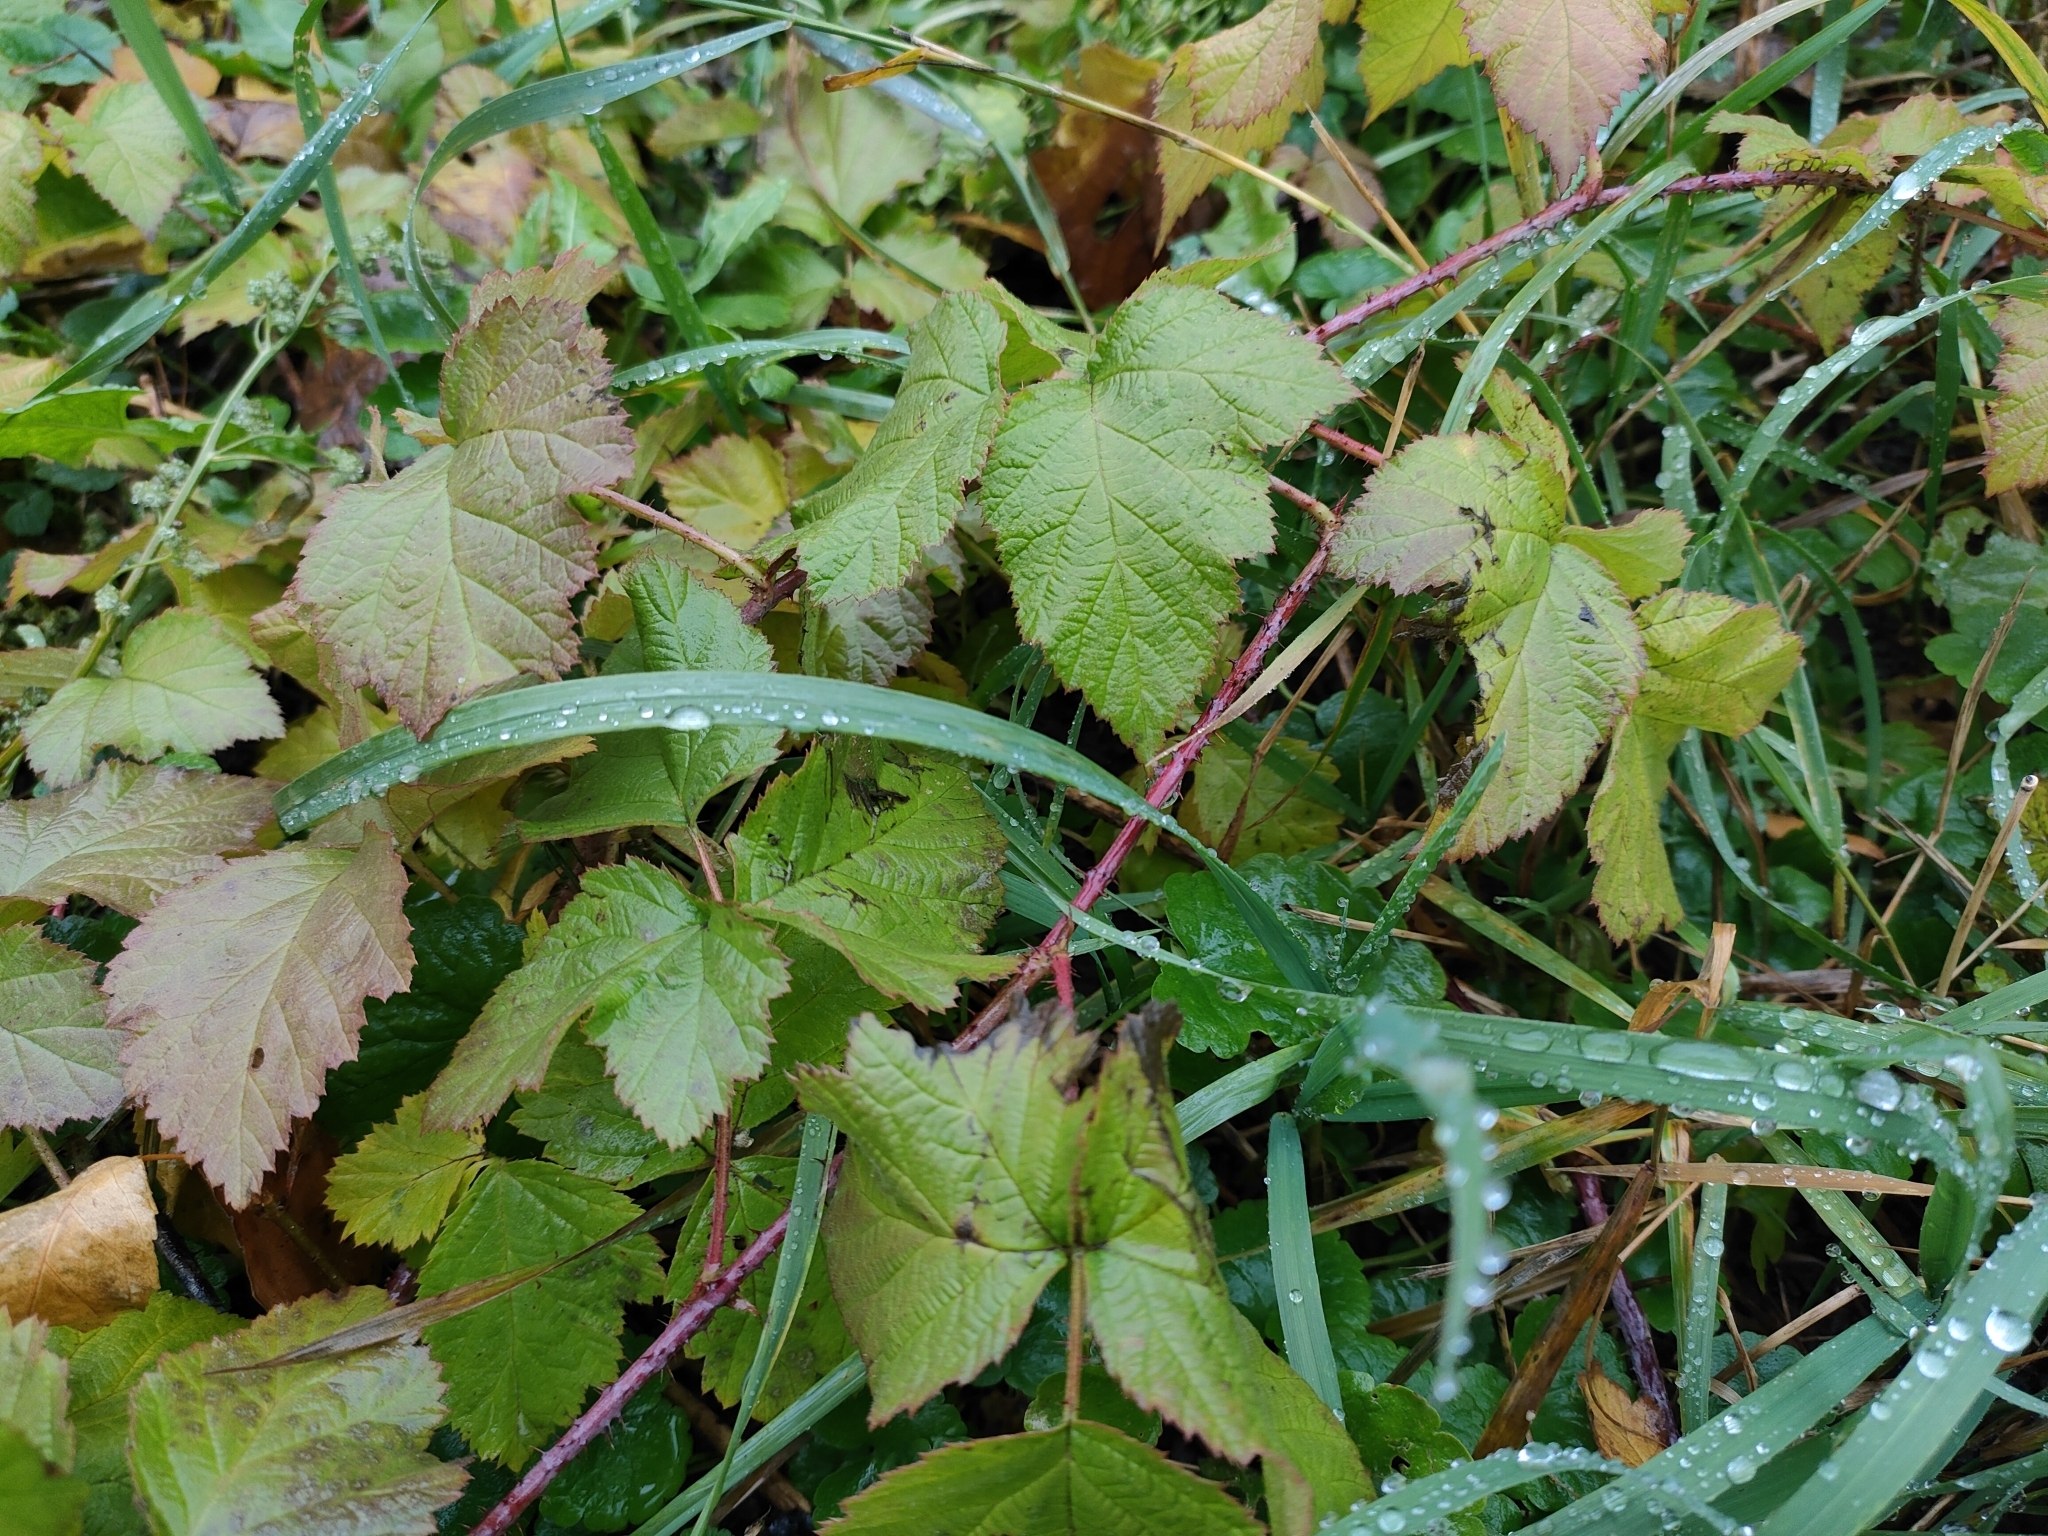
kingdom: Plantae
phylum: Tracheophyta
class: Magnoliopsida
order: Rosales
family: Rosaceae
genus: Rubus
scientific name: Rubus caesius
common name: Dewberry
